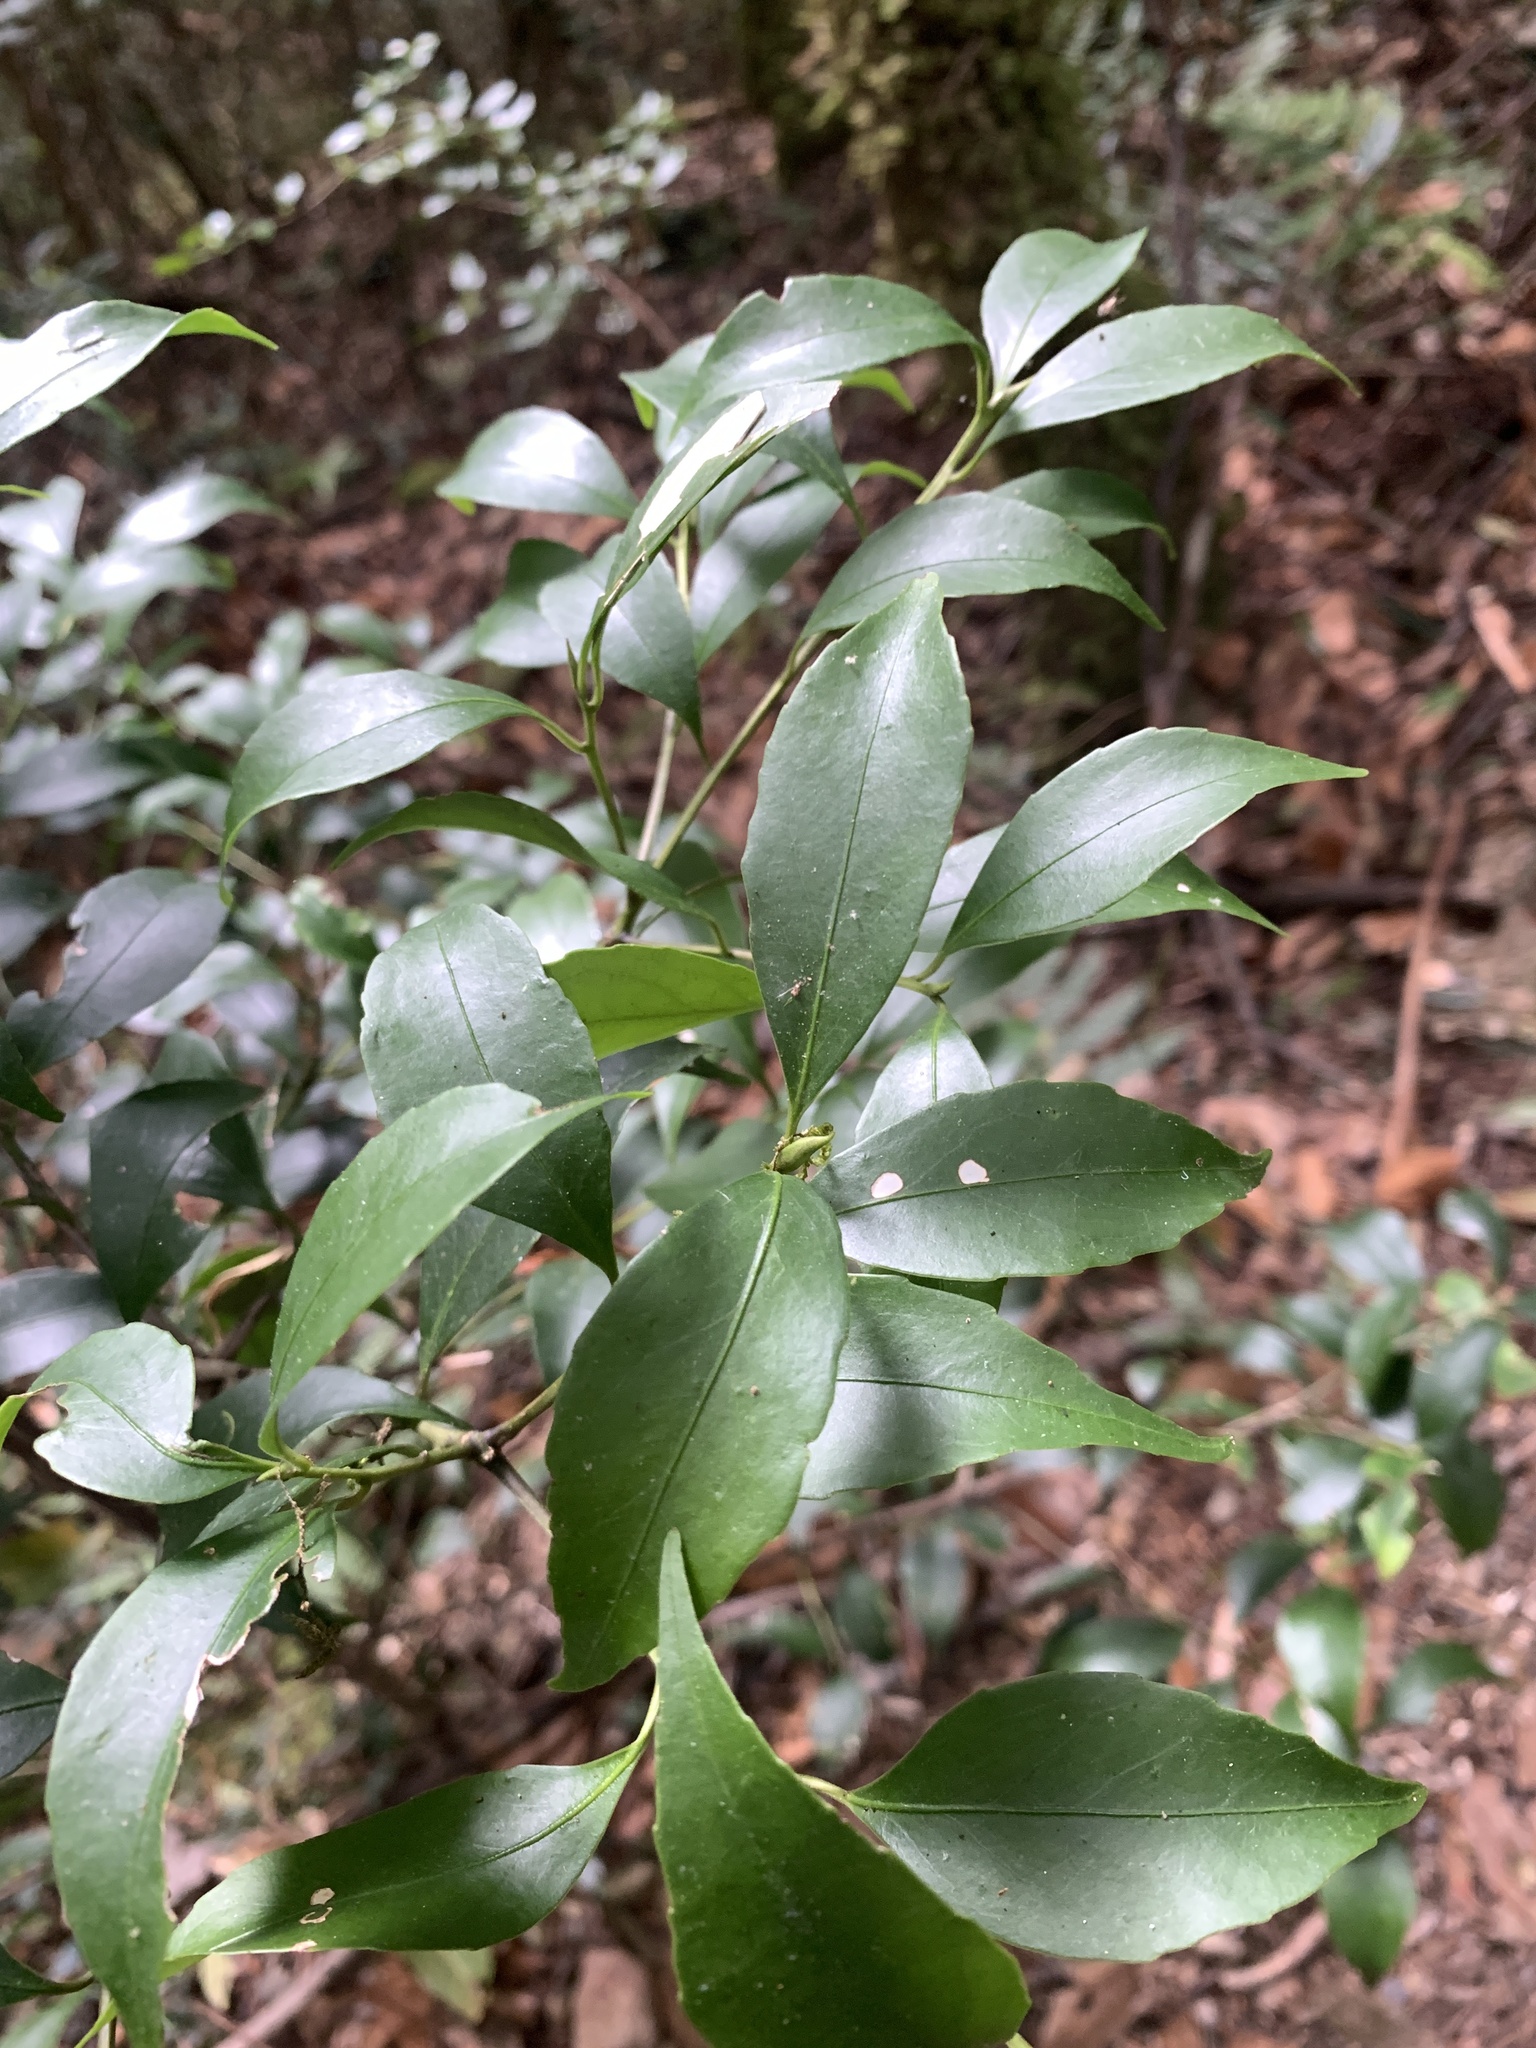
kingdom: Plantae
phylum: Tracheophyta
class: Magnoliopsida
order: Ericales
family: Symplocaceae
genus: Symplocos
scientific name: Symplocos migoi
